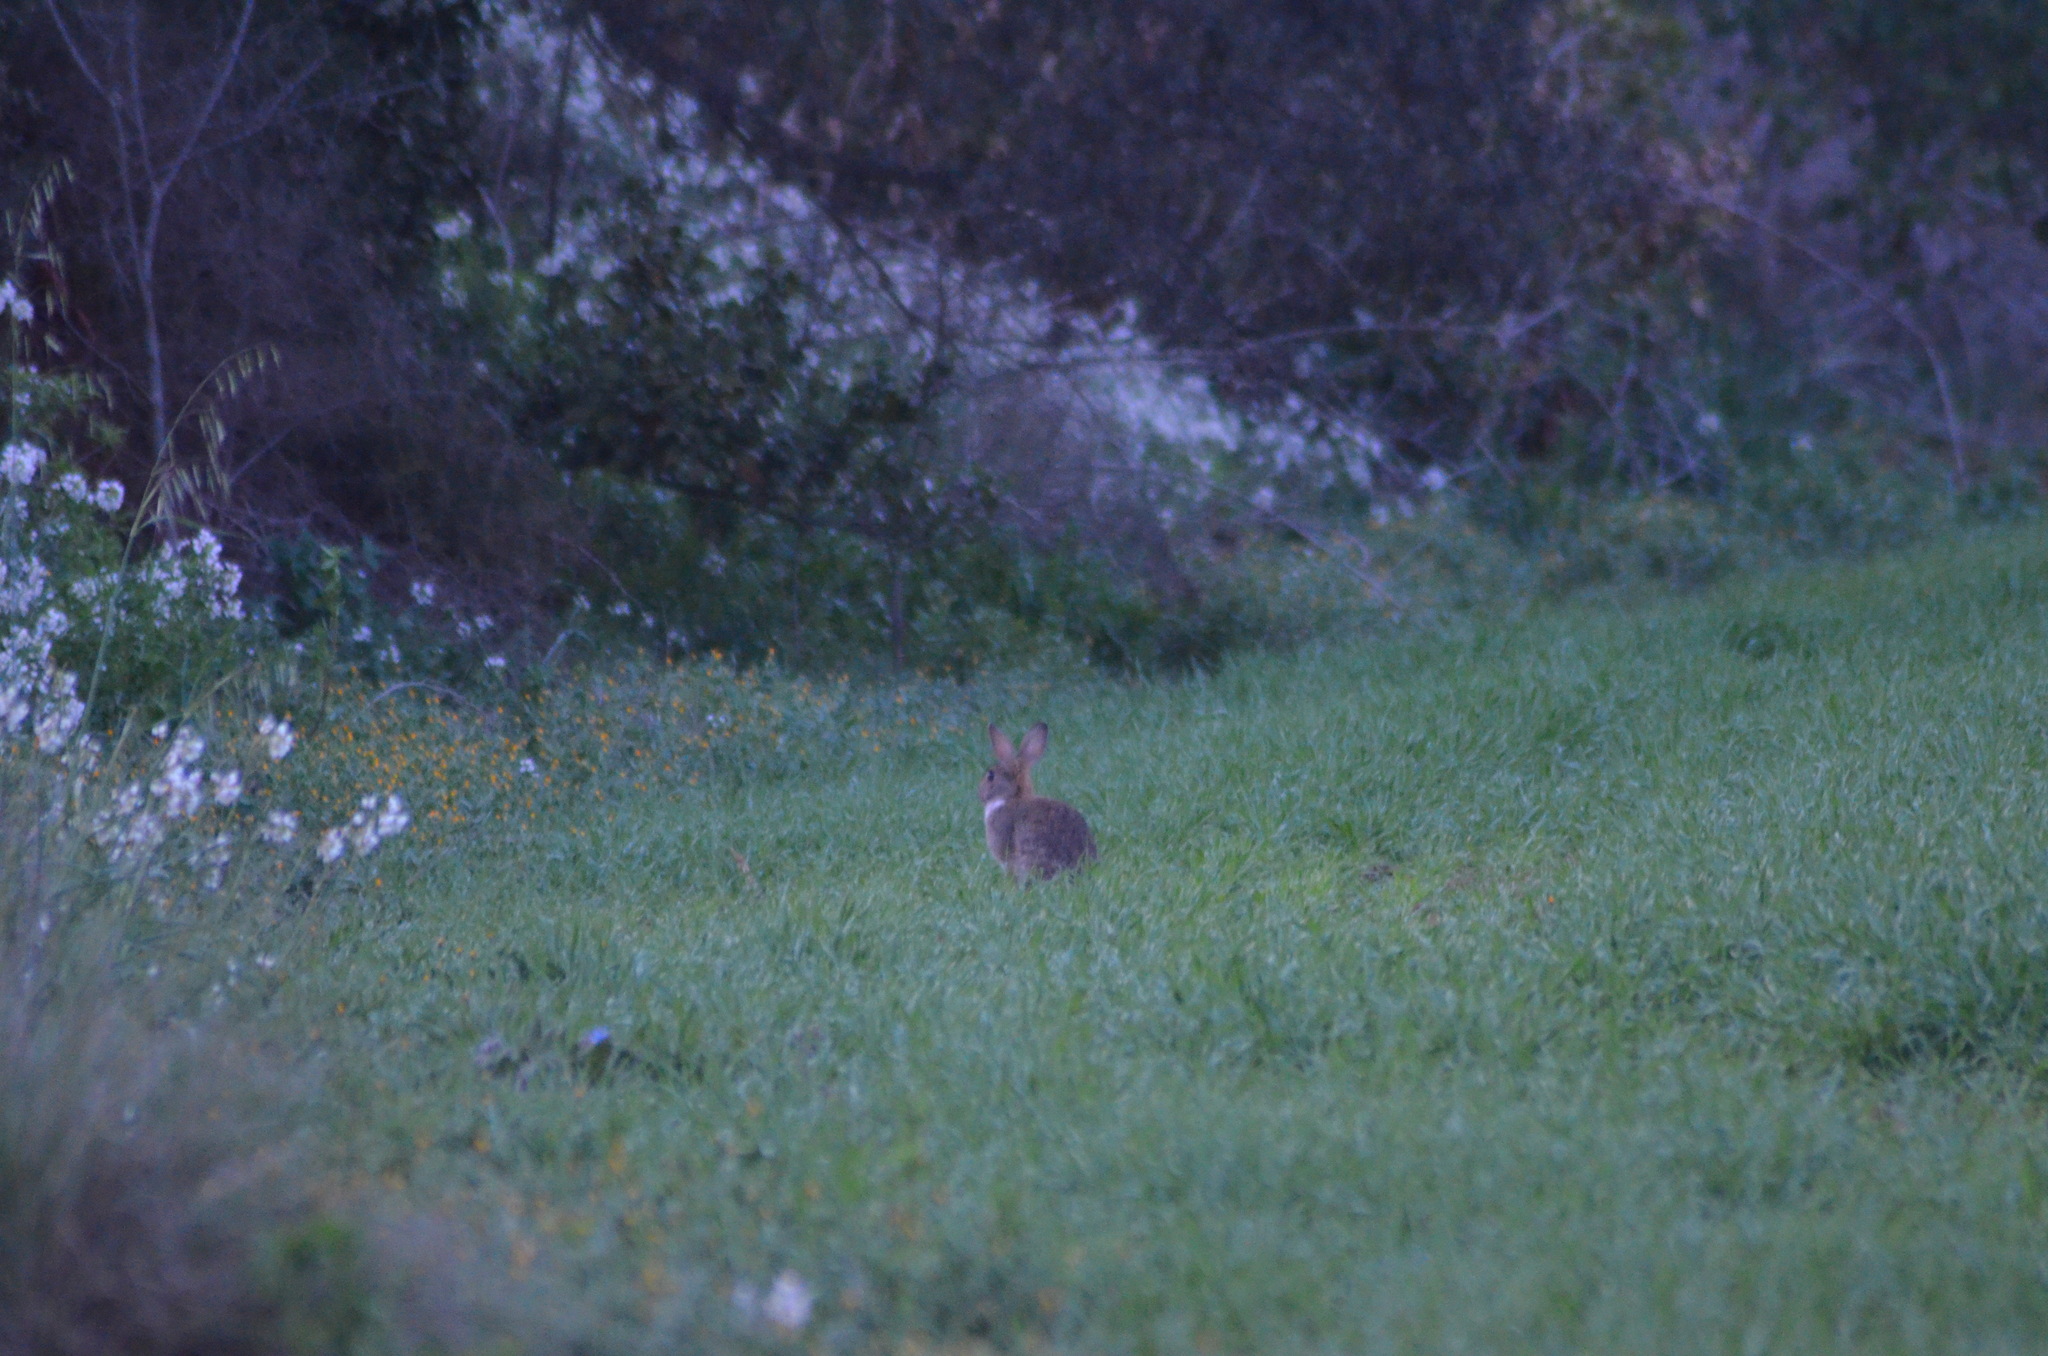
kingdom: Animalia
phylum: Chordata
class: Mammalia
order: Lagomorpha
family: Leporidae
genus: Oryctolagus
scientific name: Oryctolagus cuniculus
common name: European rabbit
